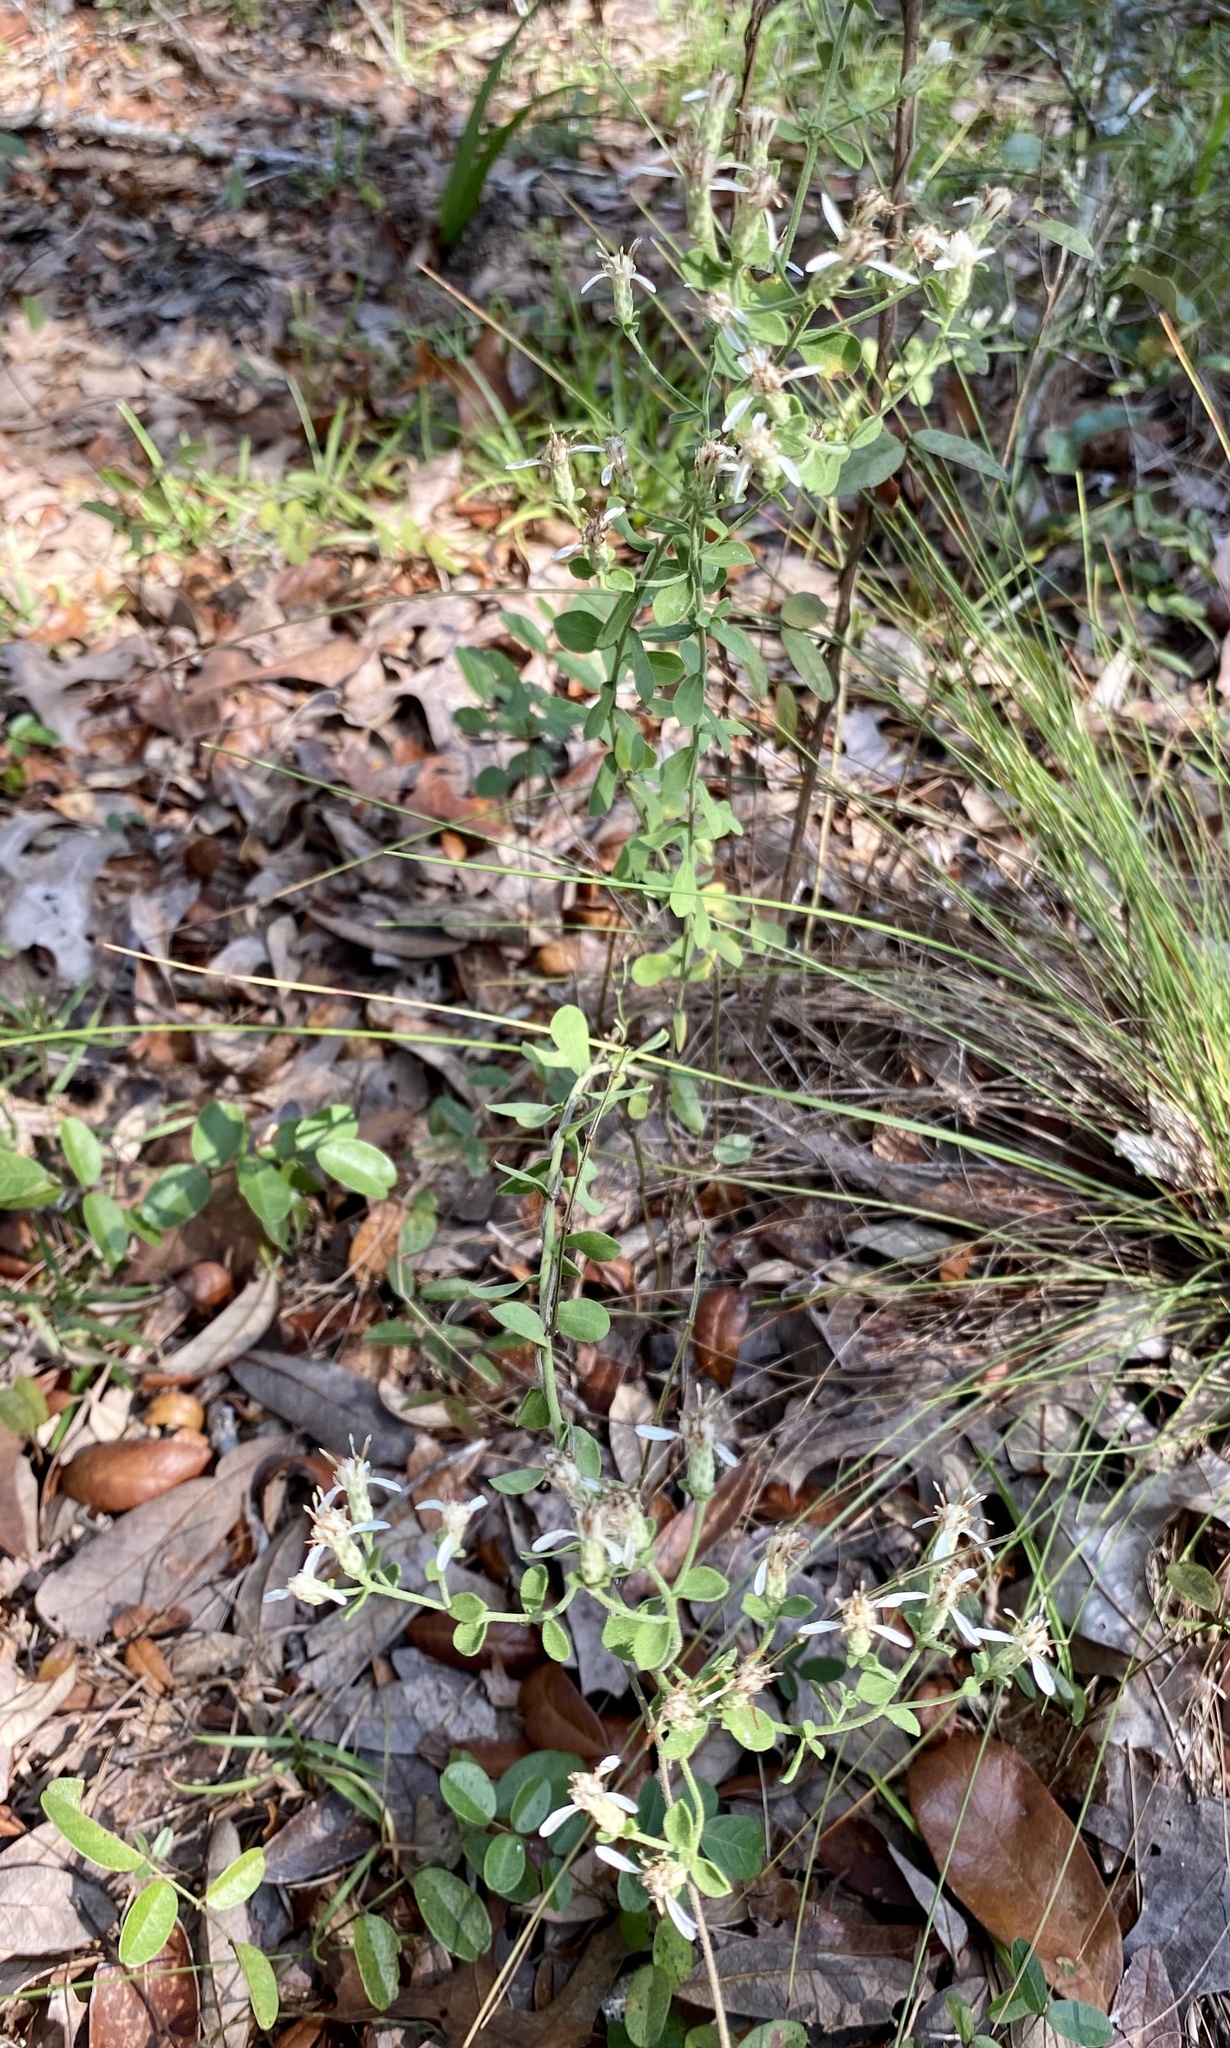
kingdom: Plantae
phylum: Tracheophyta
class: Magnoliopsida
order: Asterales
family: Asteraceae
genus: Sericocarpus
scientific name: Sericocarpus tortifolius
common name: Dixie aster
